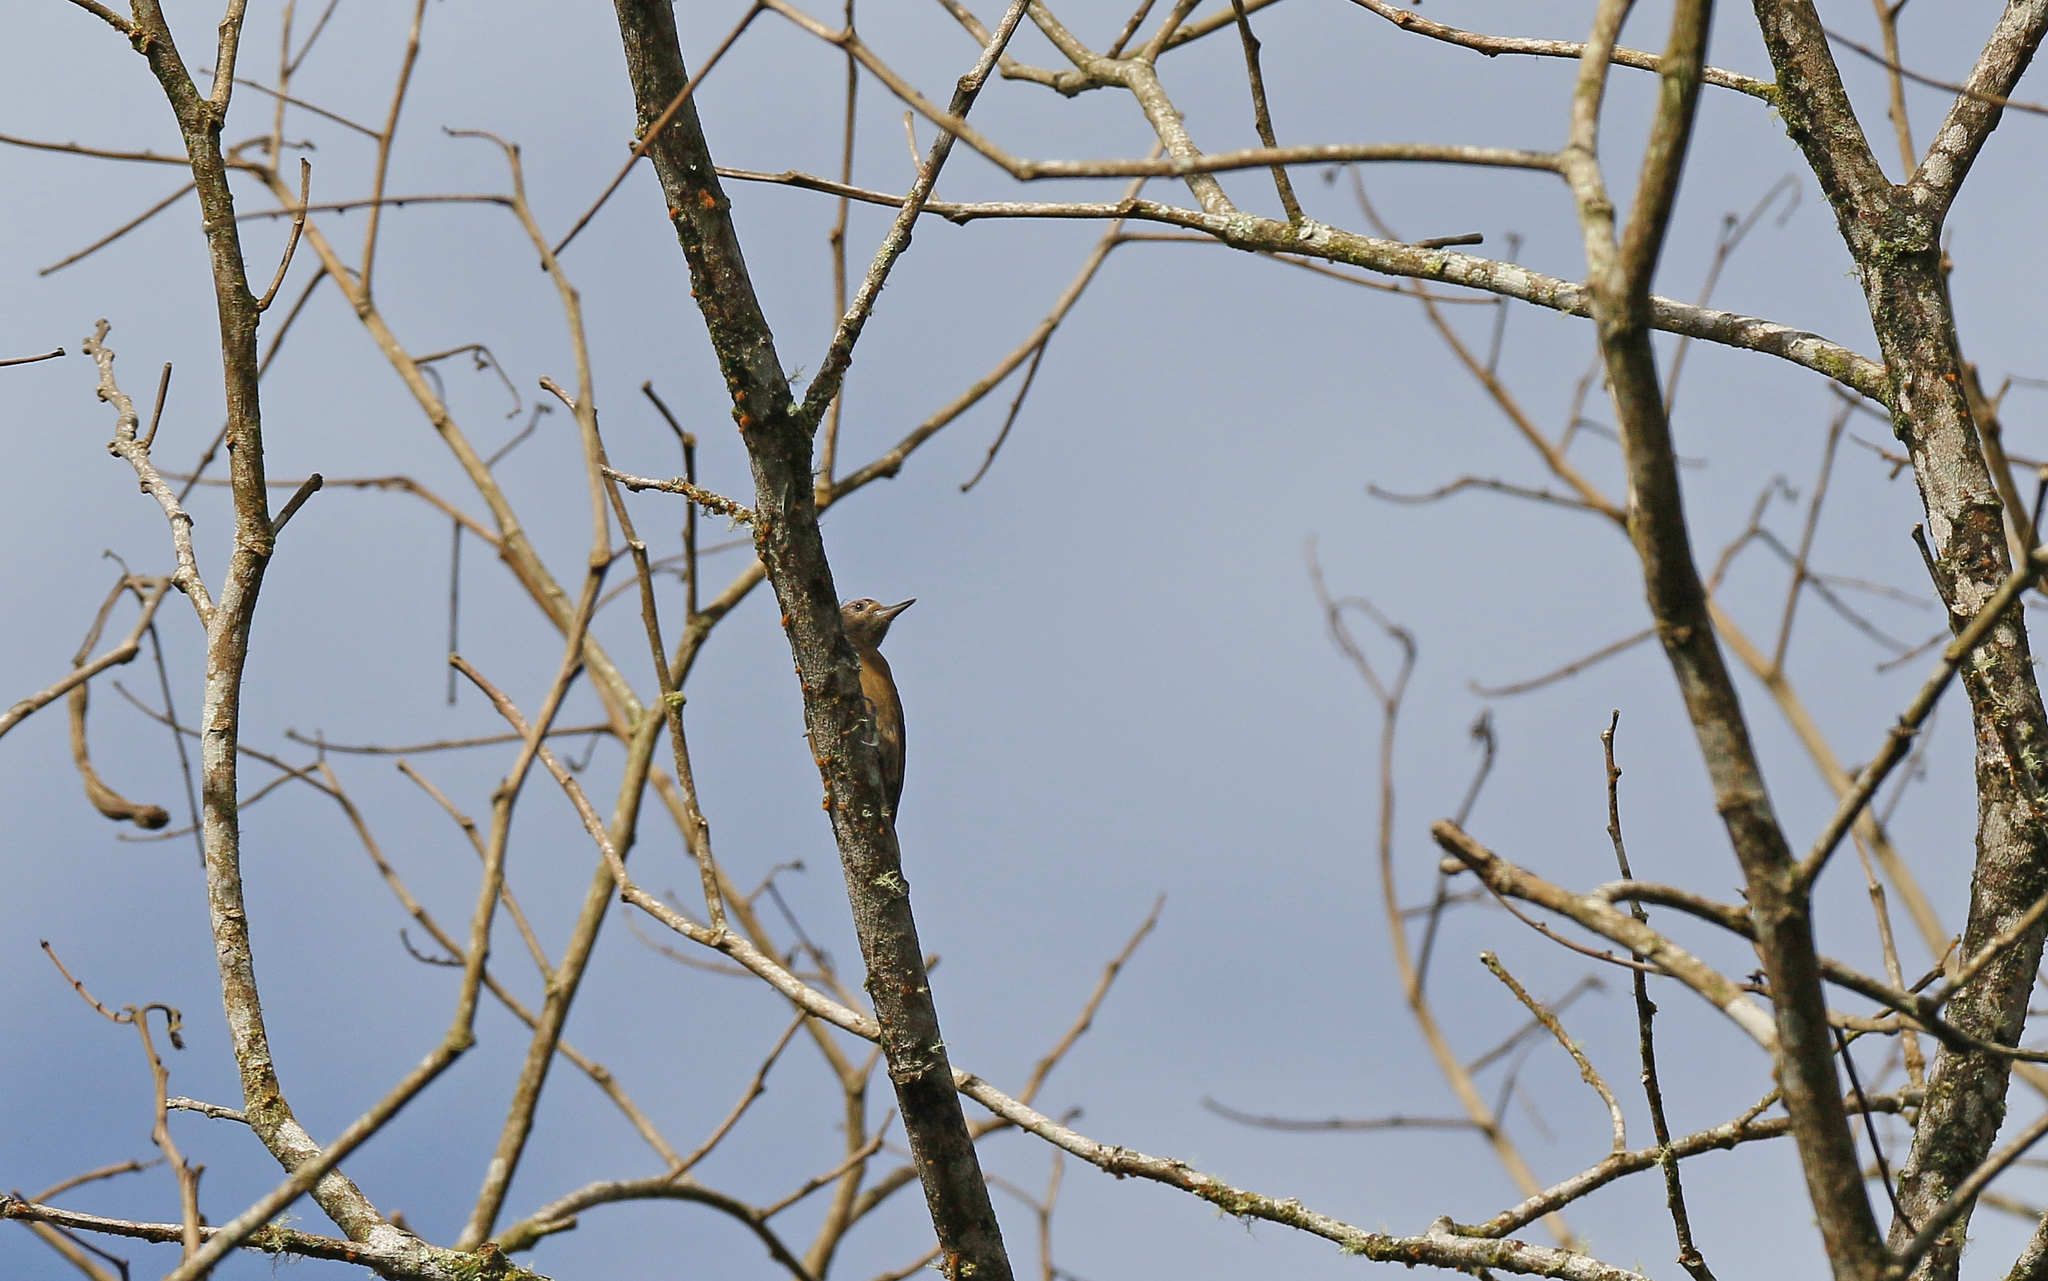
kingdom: Animalia
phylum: Chordata
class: Aves
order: Piciformes
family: Picidae
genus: Leuconotopicus
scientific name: Leuconotopicus fumigatus
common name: Smoky-brown woodpecker
